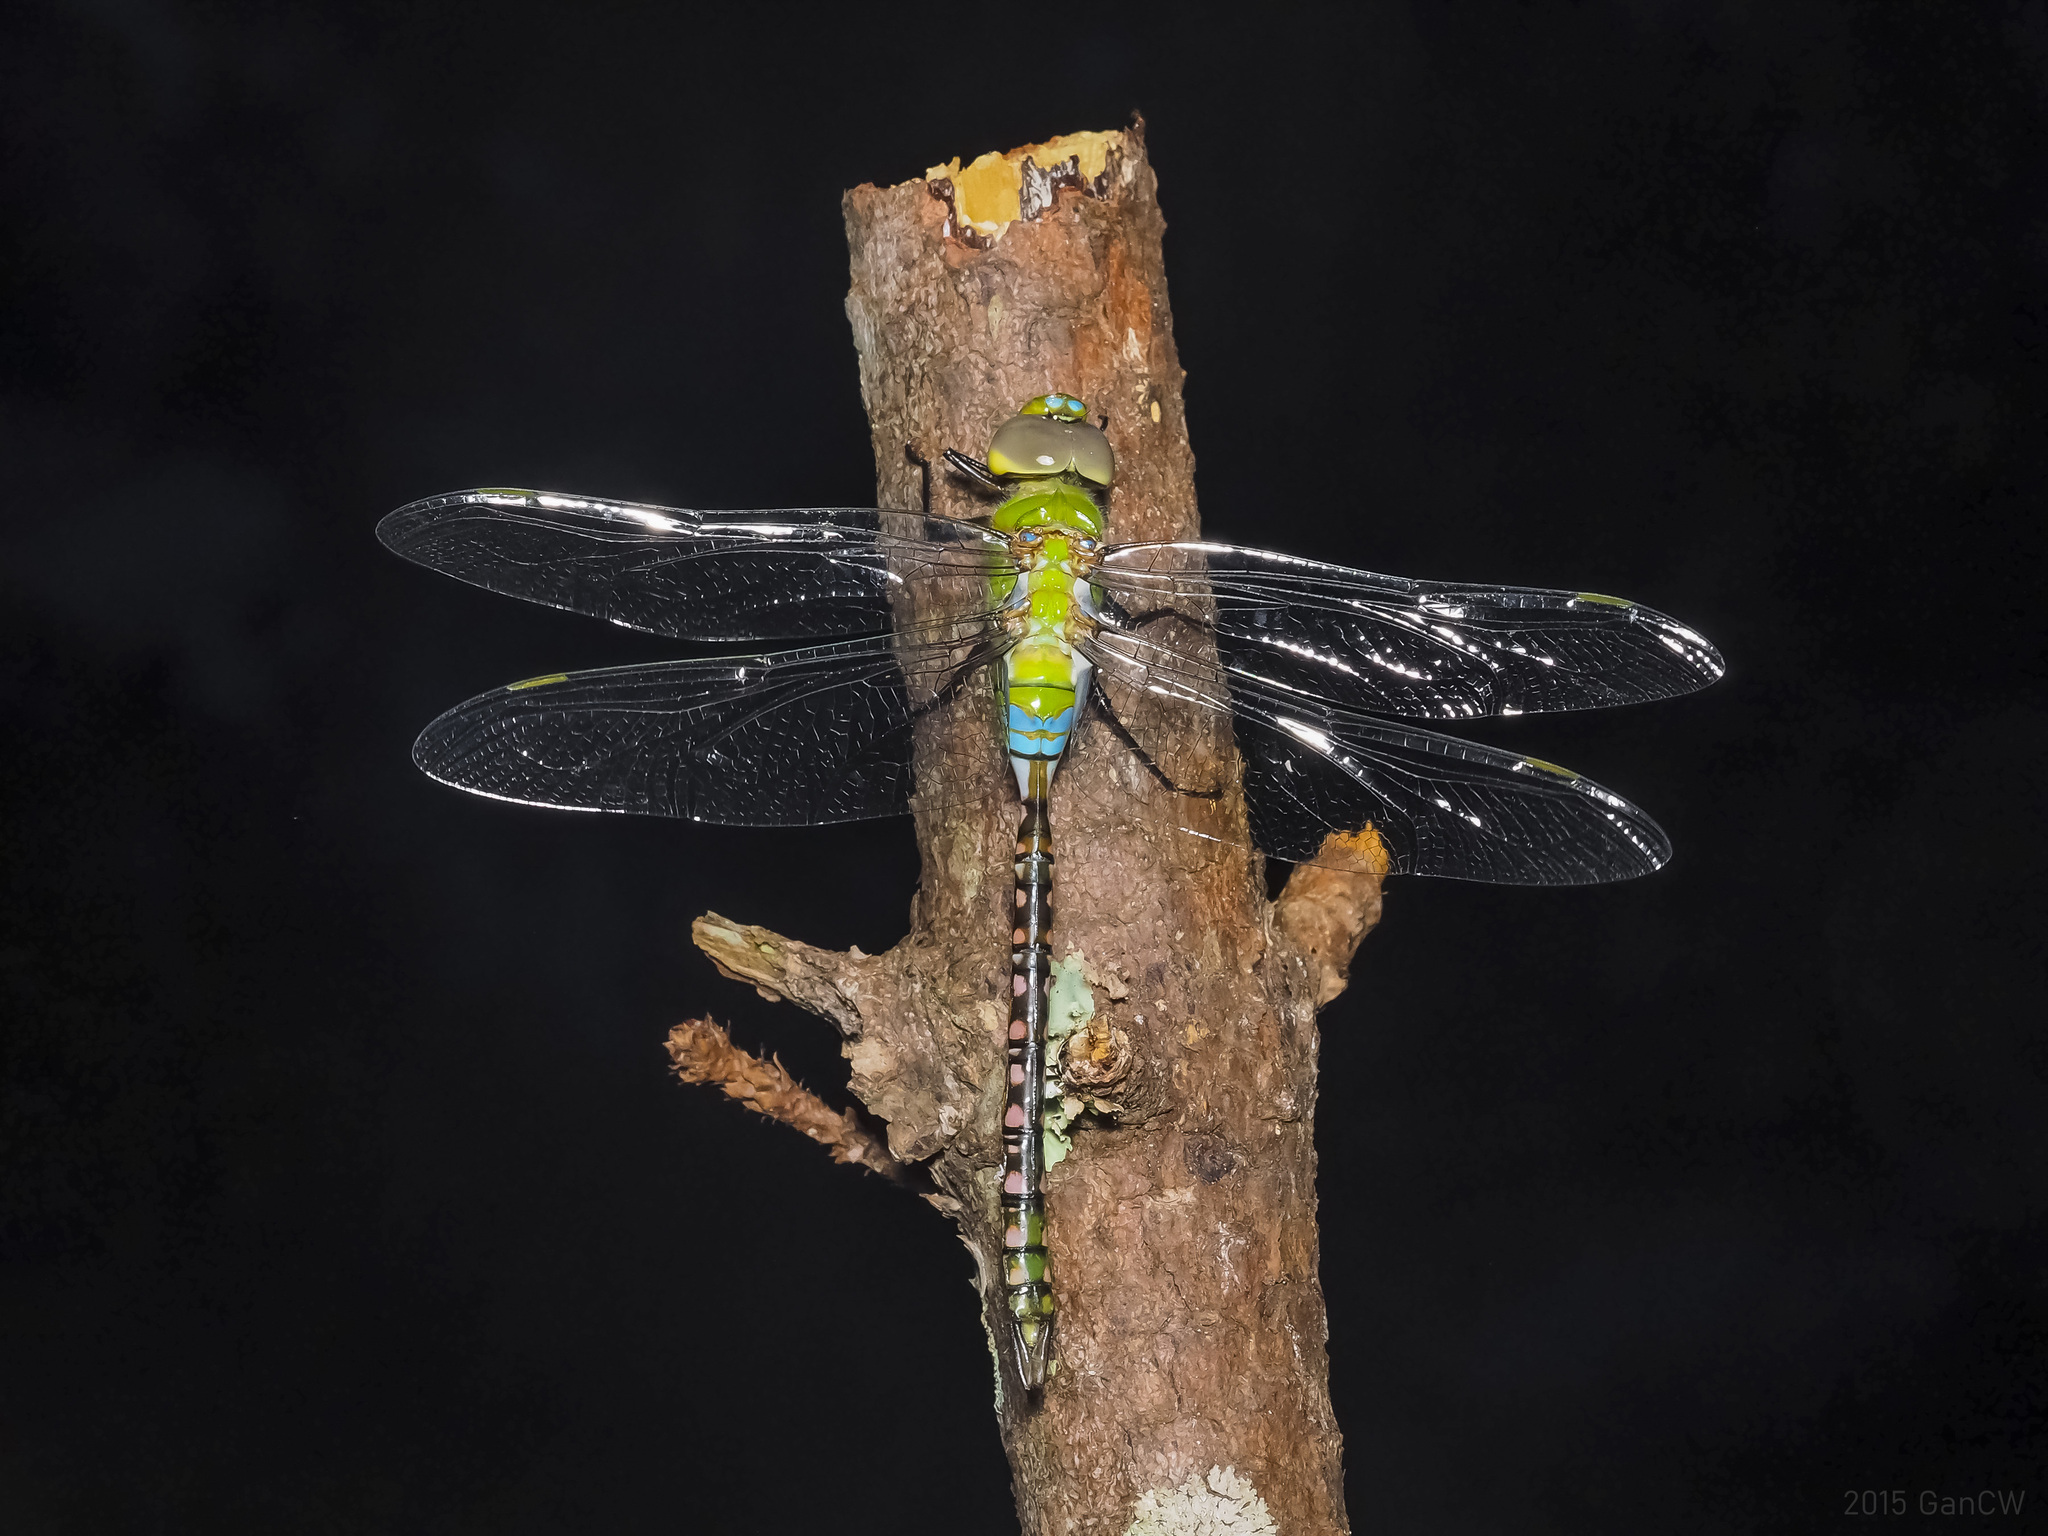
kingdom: Animalia
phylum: Arthropoda
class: Insecta
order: Odonata
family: Aeshnidae
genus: Anax
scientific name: Anax guttatus
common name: Emperor
